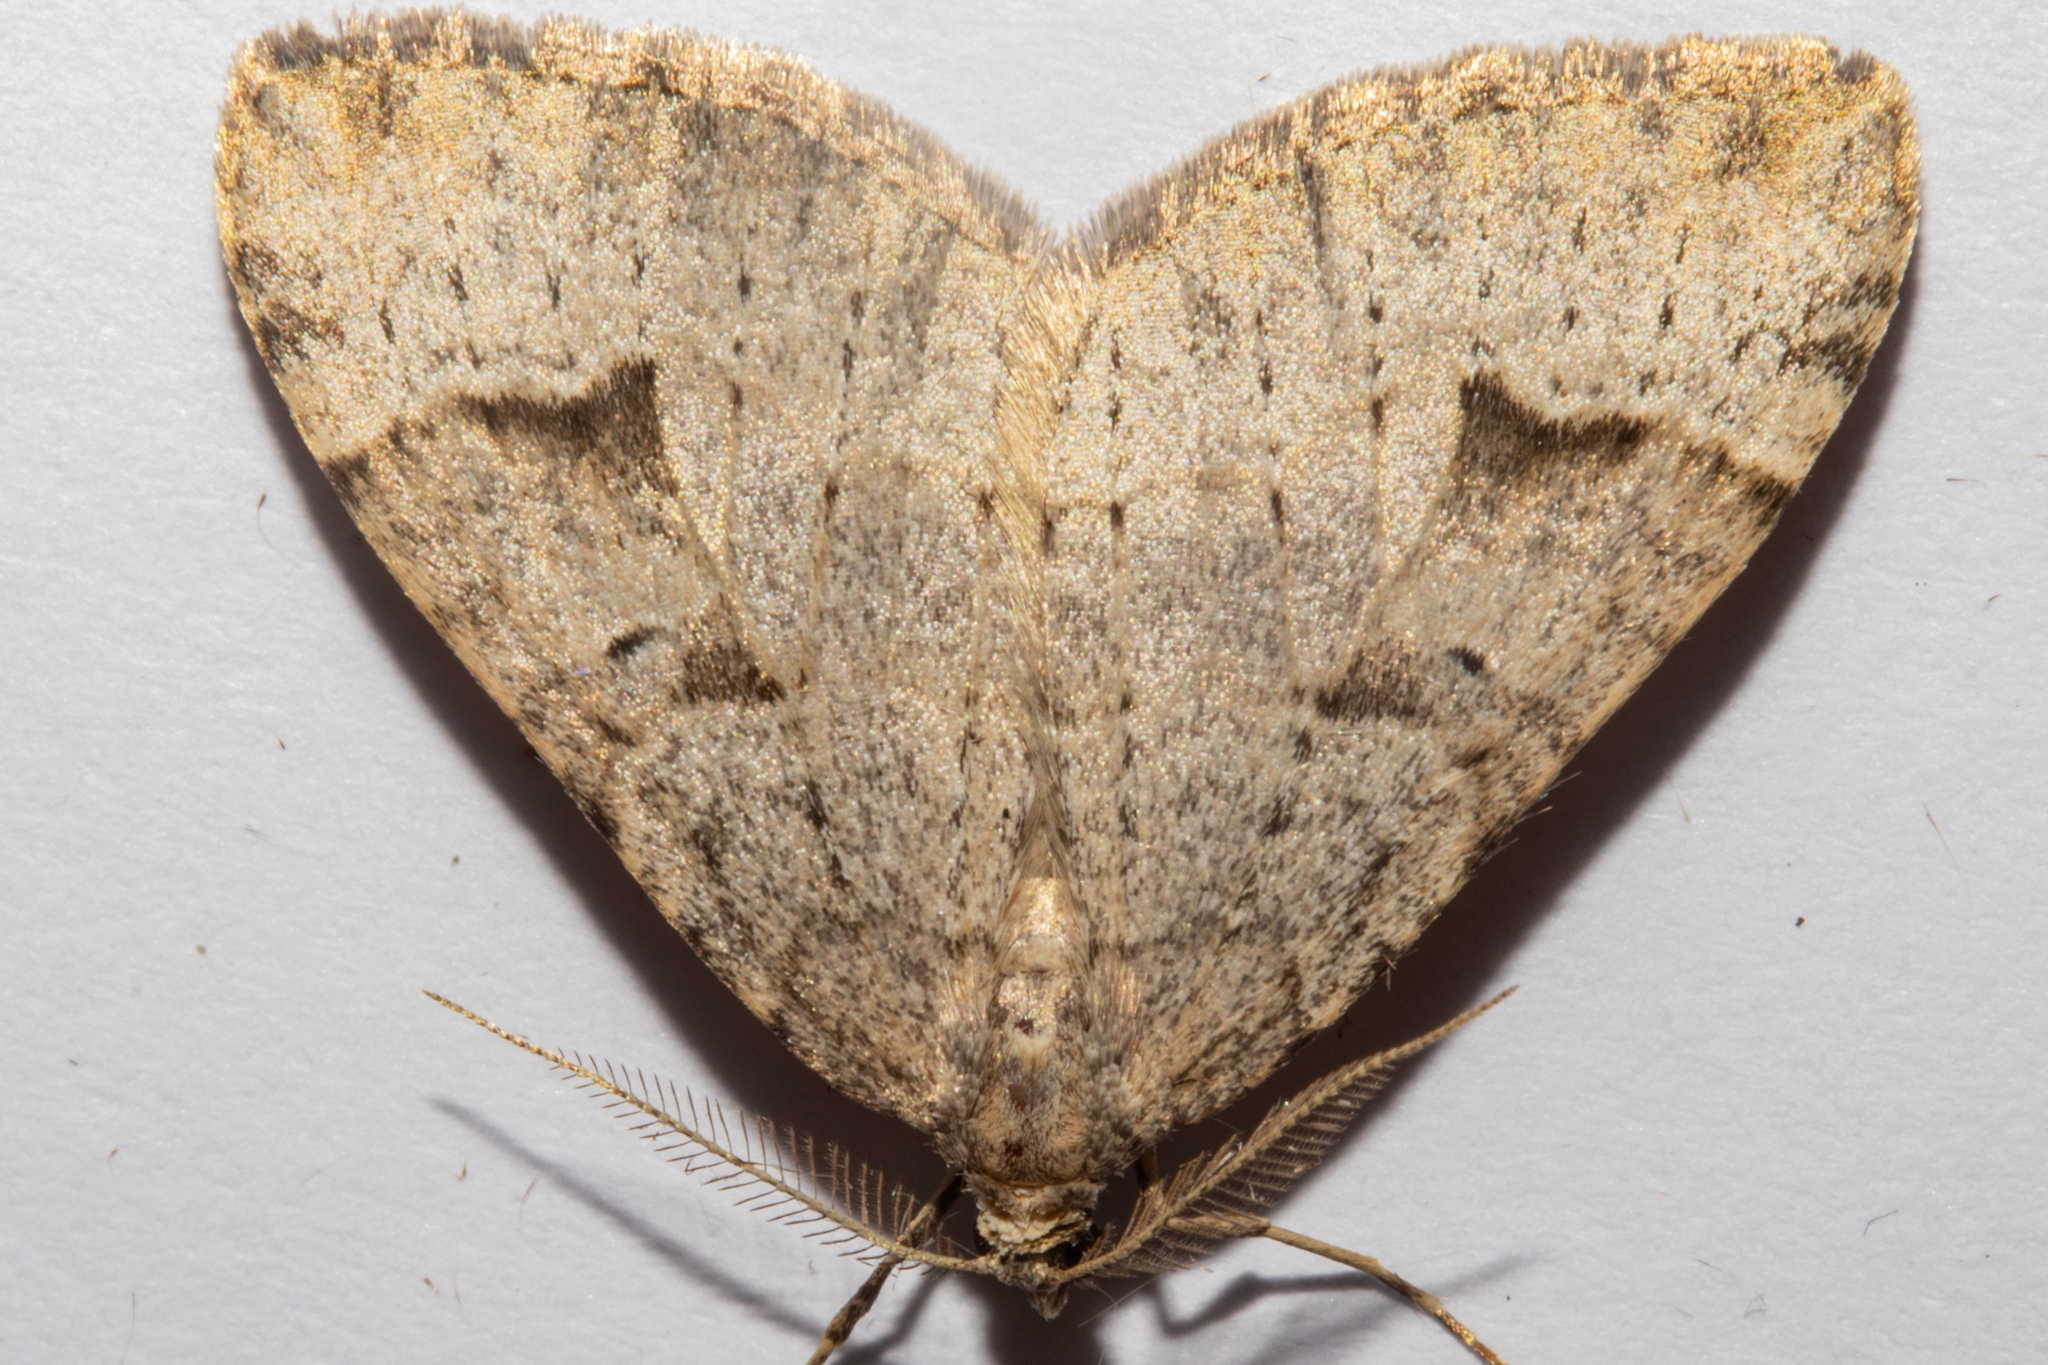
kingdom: Animalia
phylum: Arthropoda
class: Insecta
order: Lepidoptera
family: Geometridae
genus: Epyaxa
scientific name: Epyaxa rosearia
